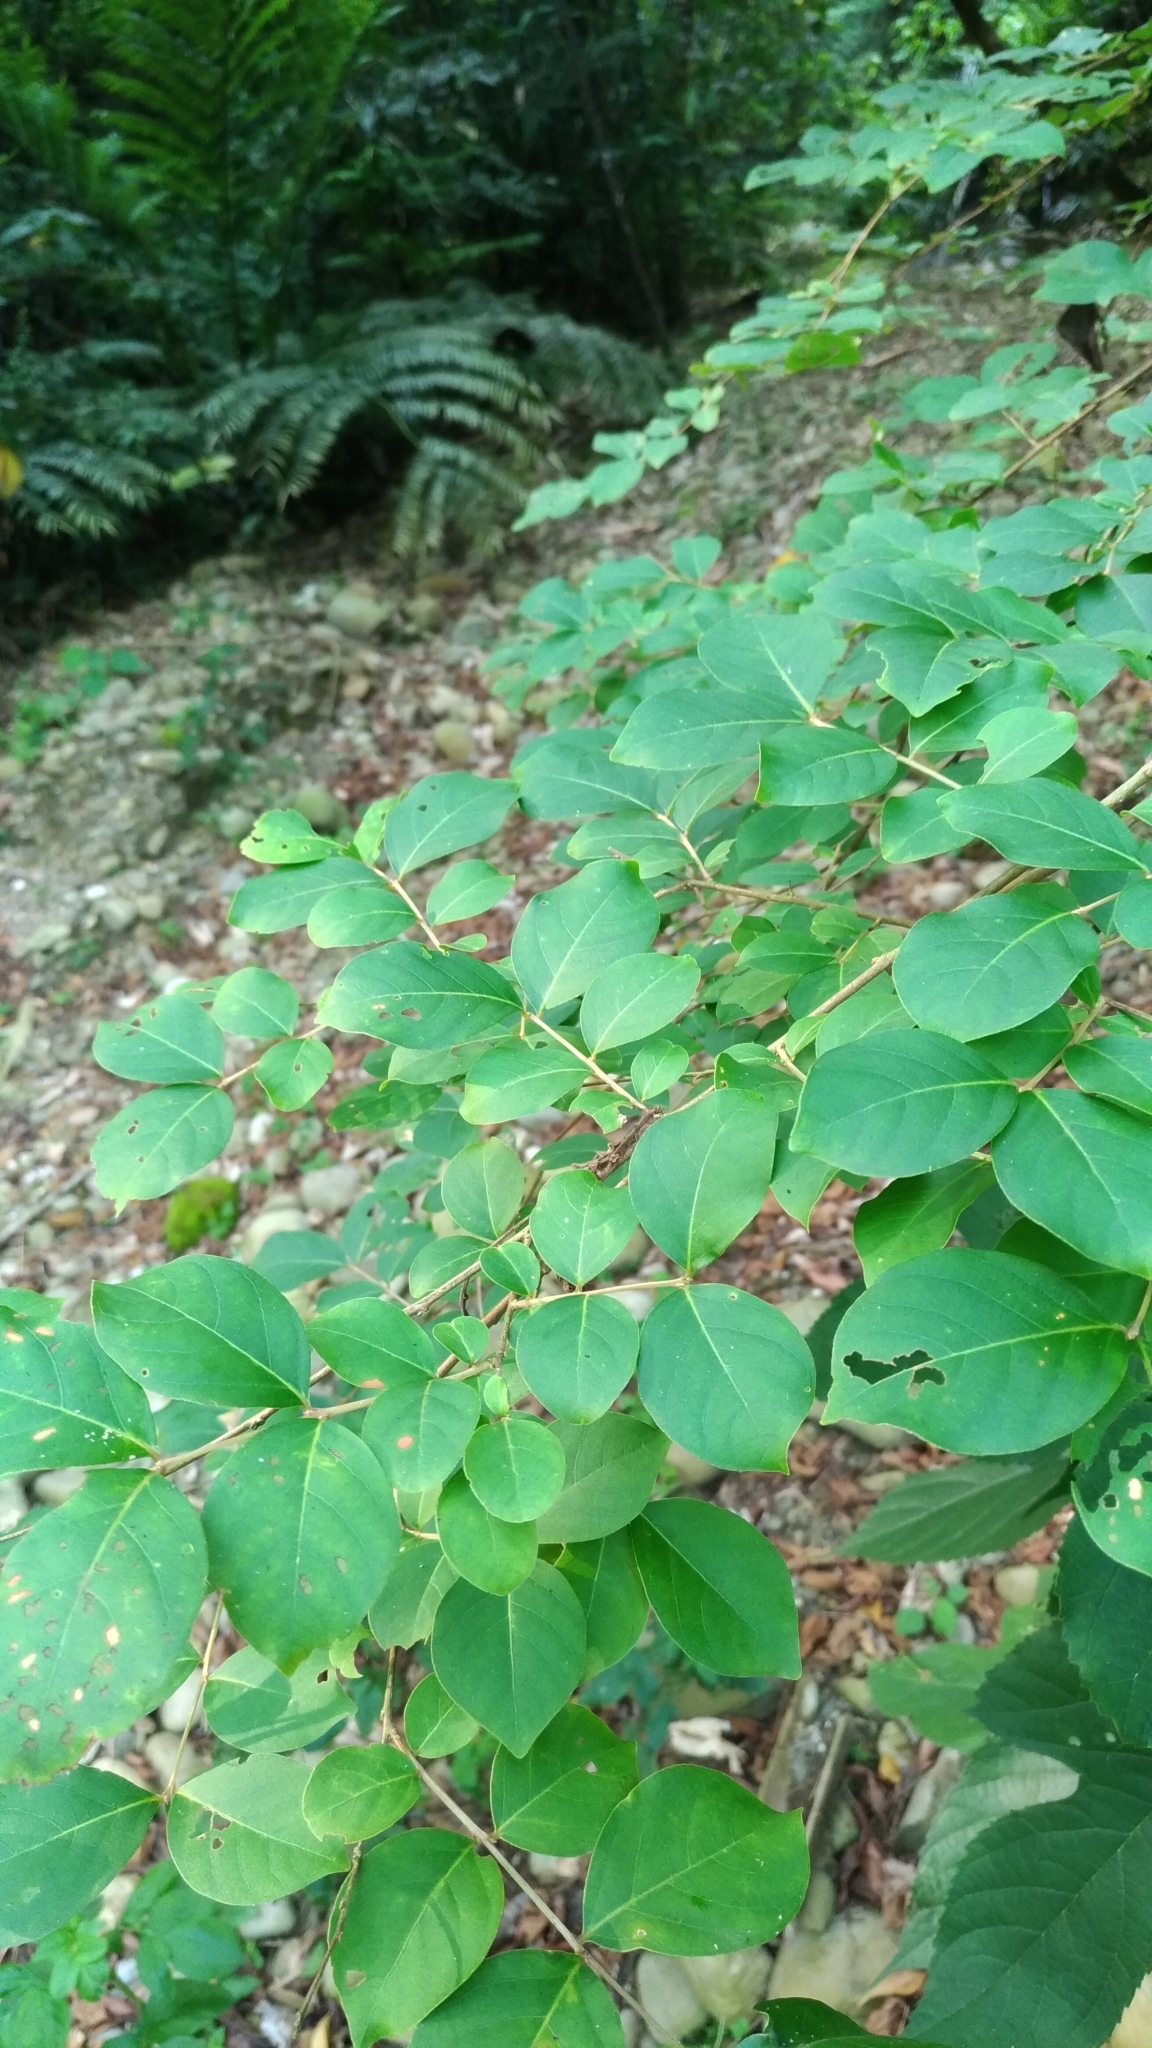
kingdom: Plantae
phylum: Tracheophyta
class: Magnoliopsida
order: Myrtales
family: Lythraceae
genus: Lagerstroemia
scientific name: Lagerstroemia subcostata
